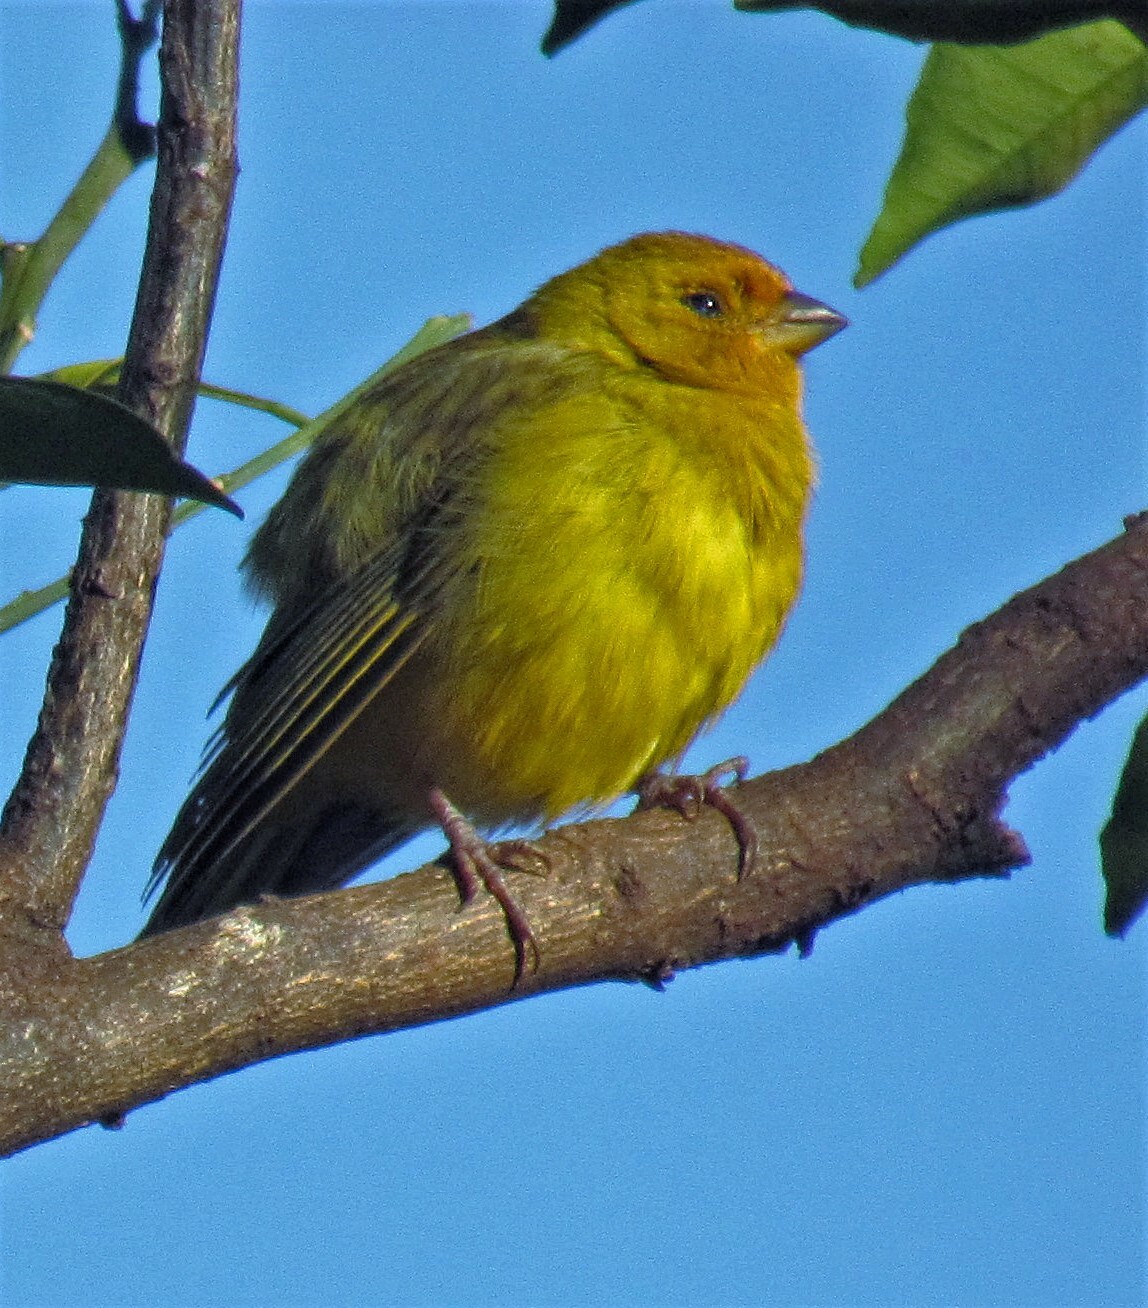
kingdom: Animalia
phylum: Chordata
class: Aves
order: Passeriformes
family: Thraupidae
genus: Sicalis
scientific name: Sicalis flaveola
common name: Saffron finch
